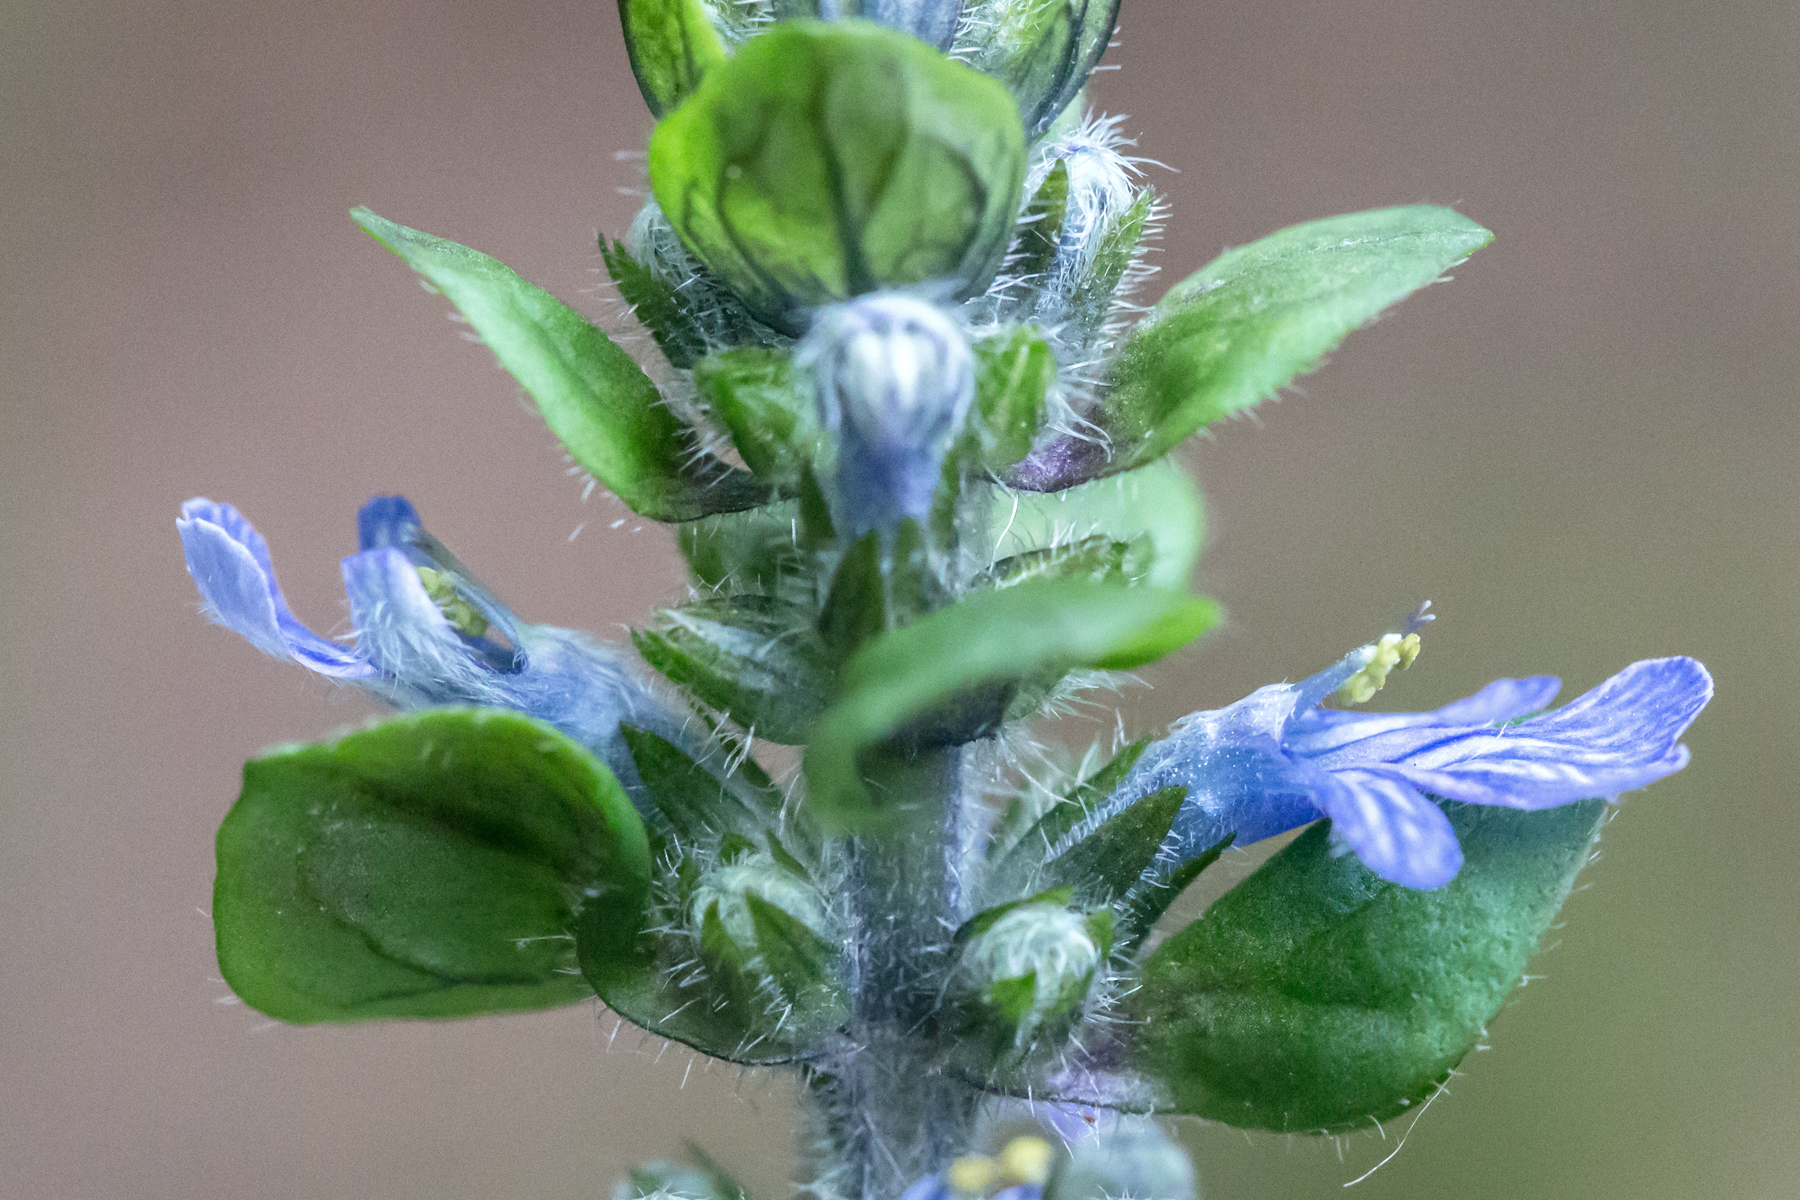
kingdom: Plantae
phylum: Tracheophyta
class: Magnoliopsida
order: Lamiales
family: Lamiaceae
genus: Ajuga
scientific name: Ajuga reptans
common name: Bugle
